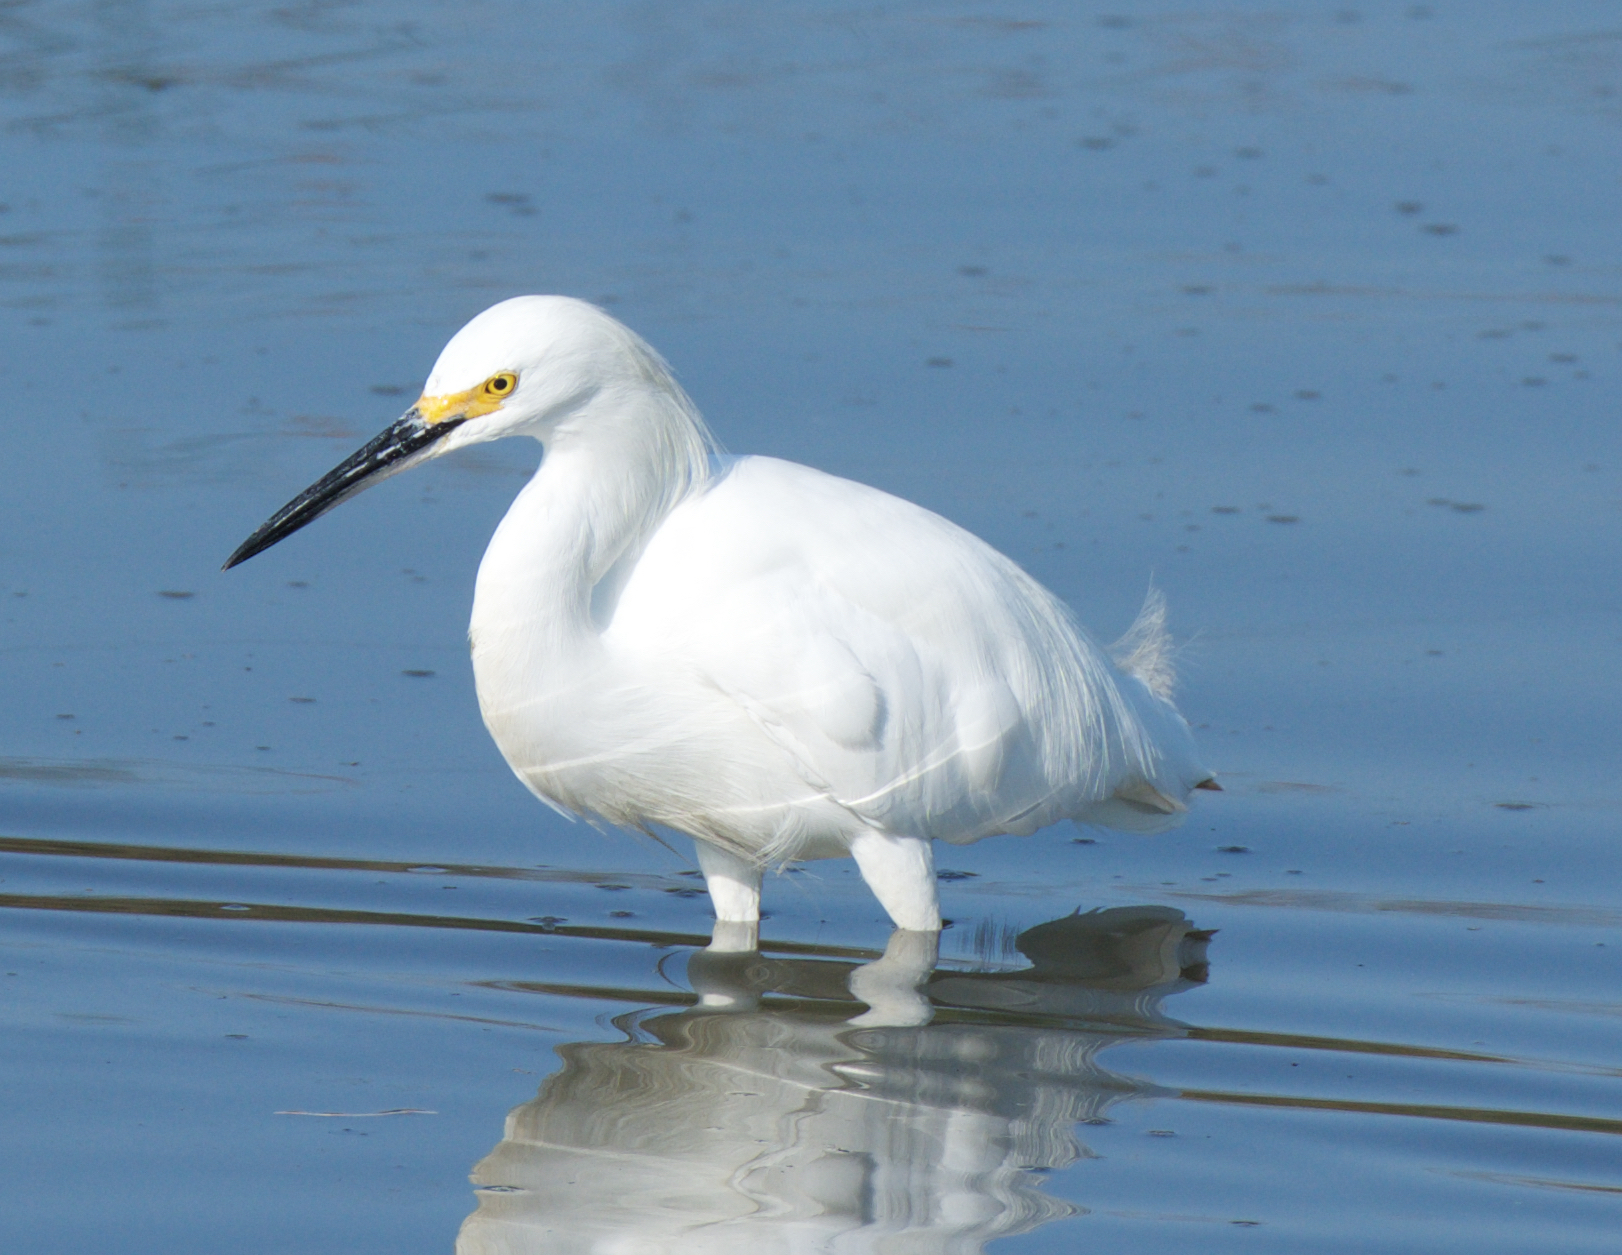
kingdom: Animalia
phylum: Chordata
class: Aves
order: Pelecaniformes
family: Ardeidae
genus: Egretta
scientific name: Egretta thula
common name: Snowy egret
